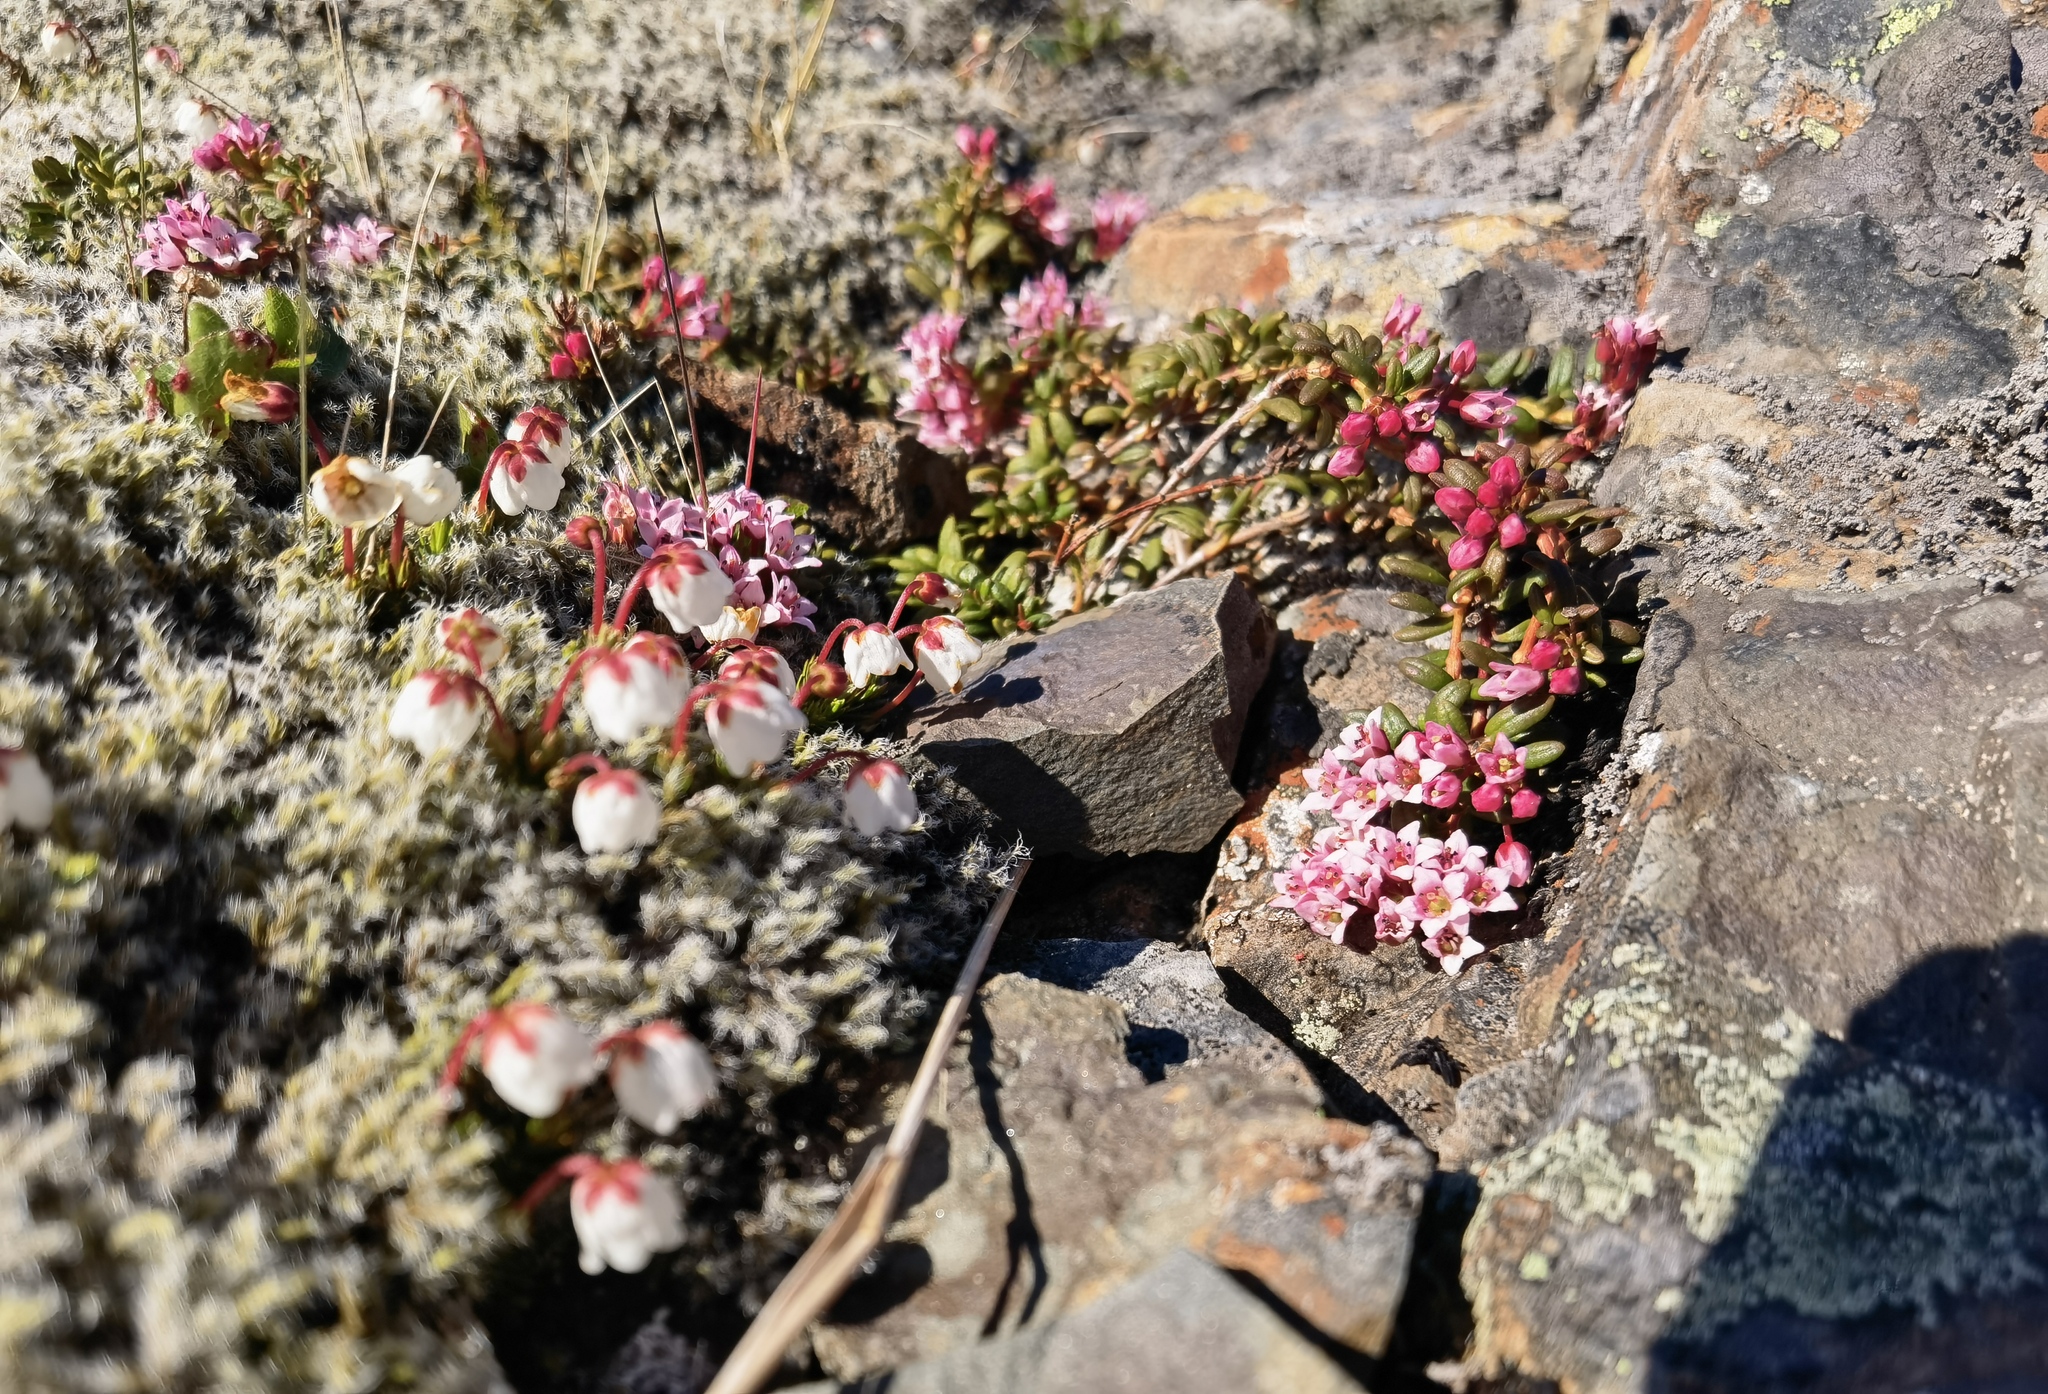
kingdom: Plantae
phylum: Tracheophyta
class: Magnoliopsida
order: Ericales
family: Ericaceae
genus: Kalmia
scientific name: Kalmia procumbens
